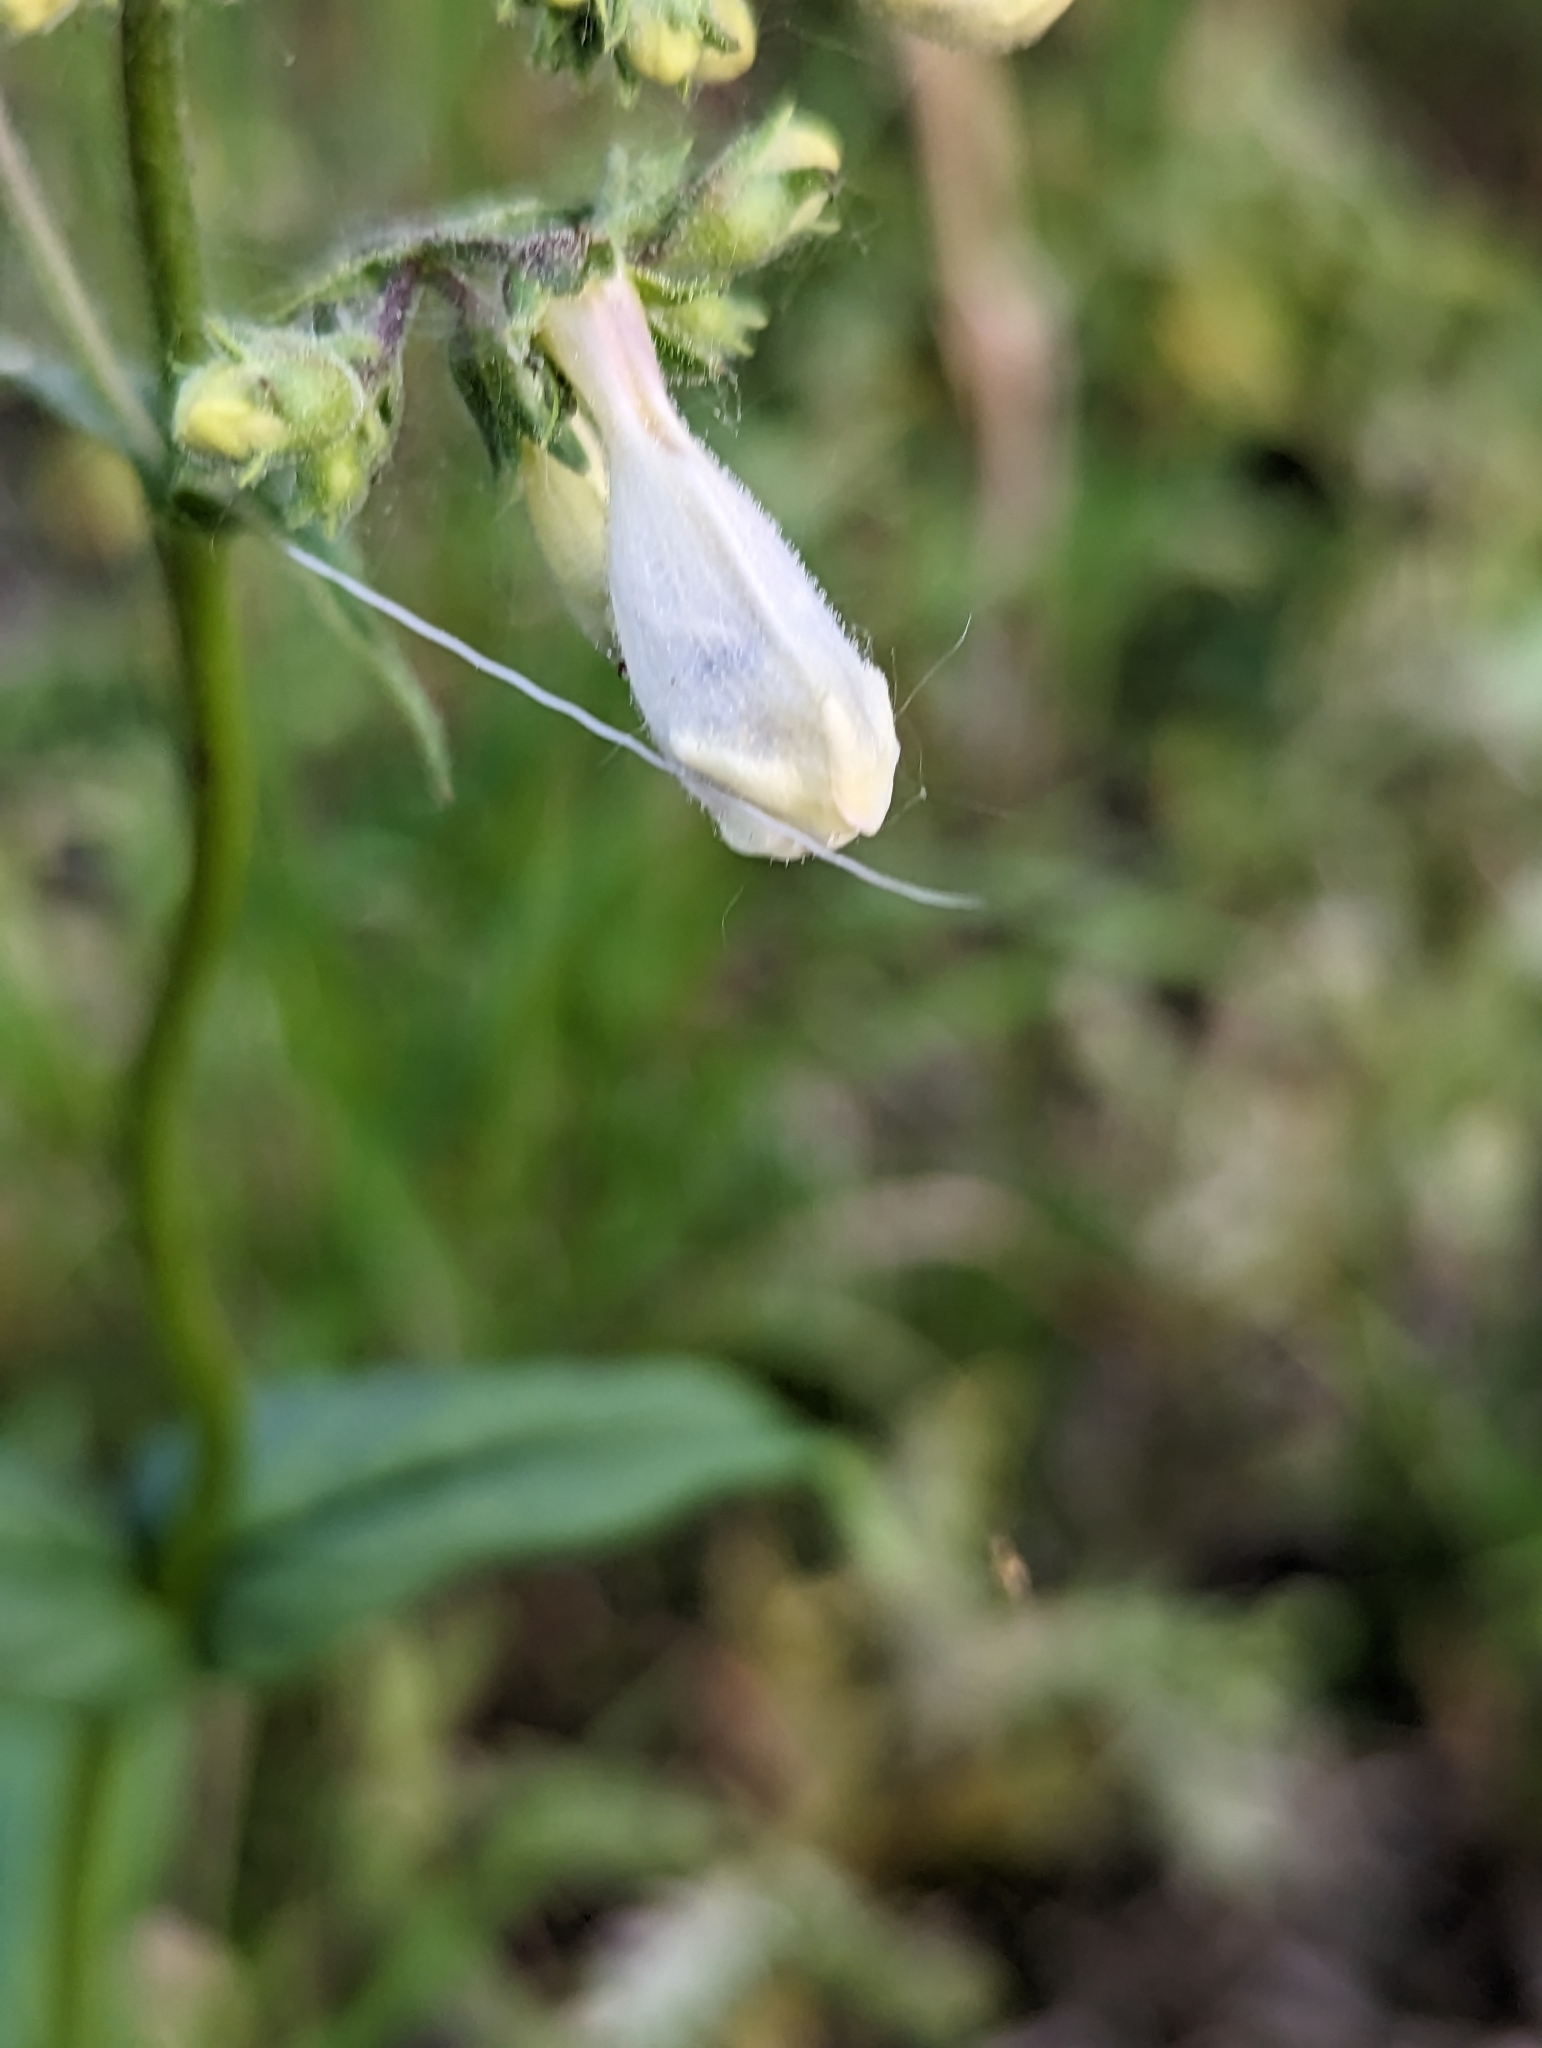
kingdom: Plantae
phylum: Tracheophyta
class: Magnoliopsida
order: Lamiales
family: Plantaginaceae
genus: Penstemon
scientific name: Penstemon digitalis
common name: Foxglove beardtongue
